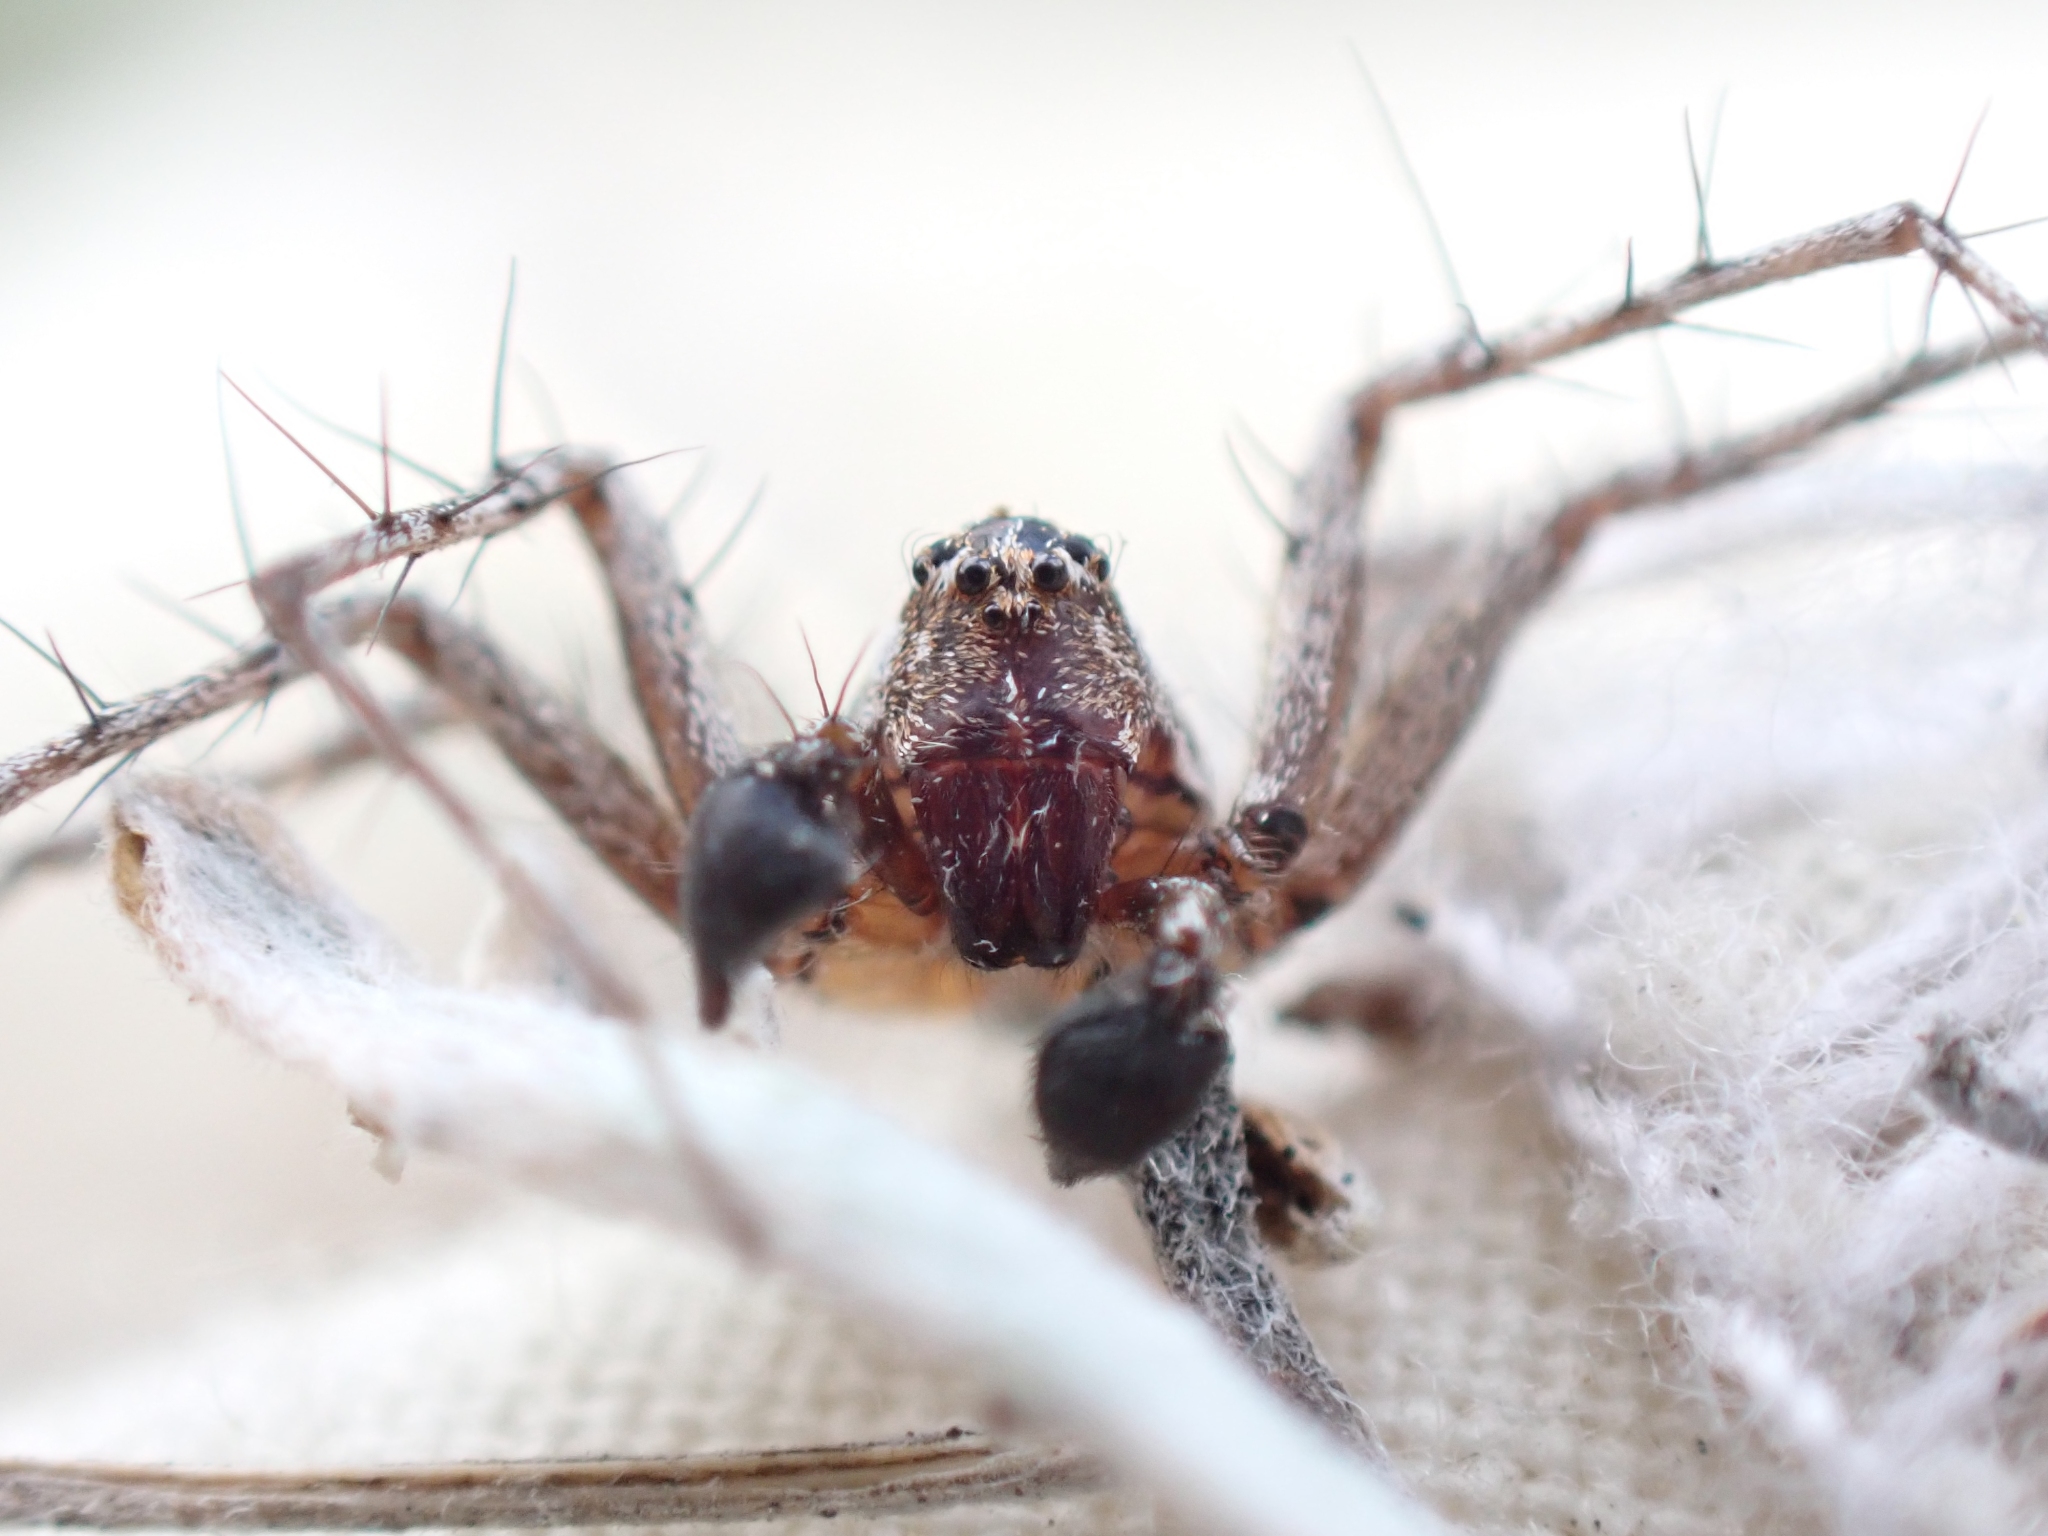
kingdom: Animalia
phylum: Arthropoda
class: Arachnida
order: Araneae
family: Oxyopidae
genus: Oxyopes
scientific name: Oxyopes scalaris
